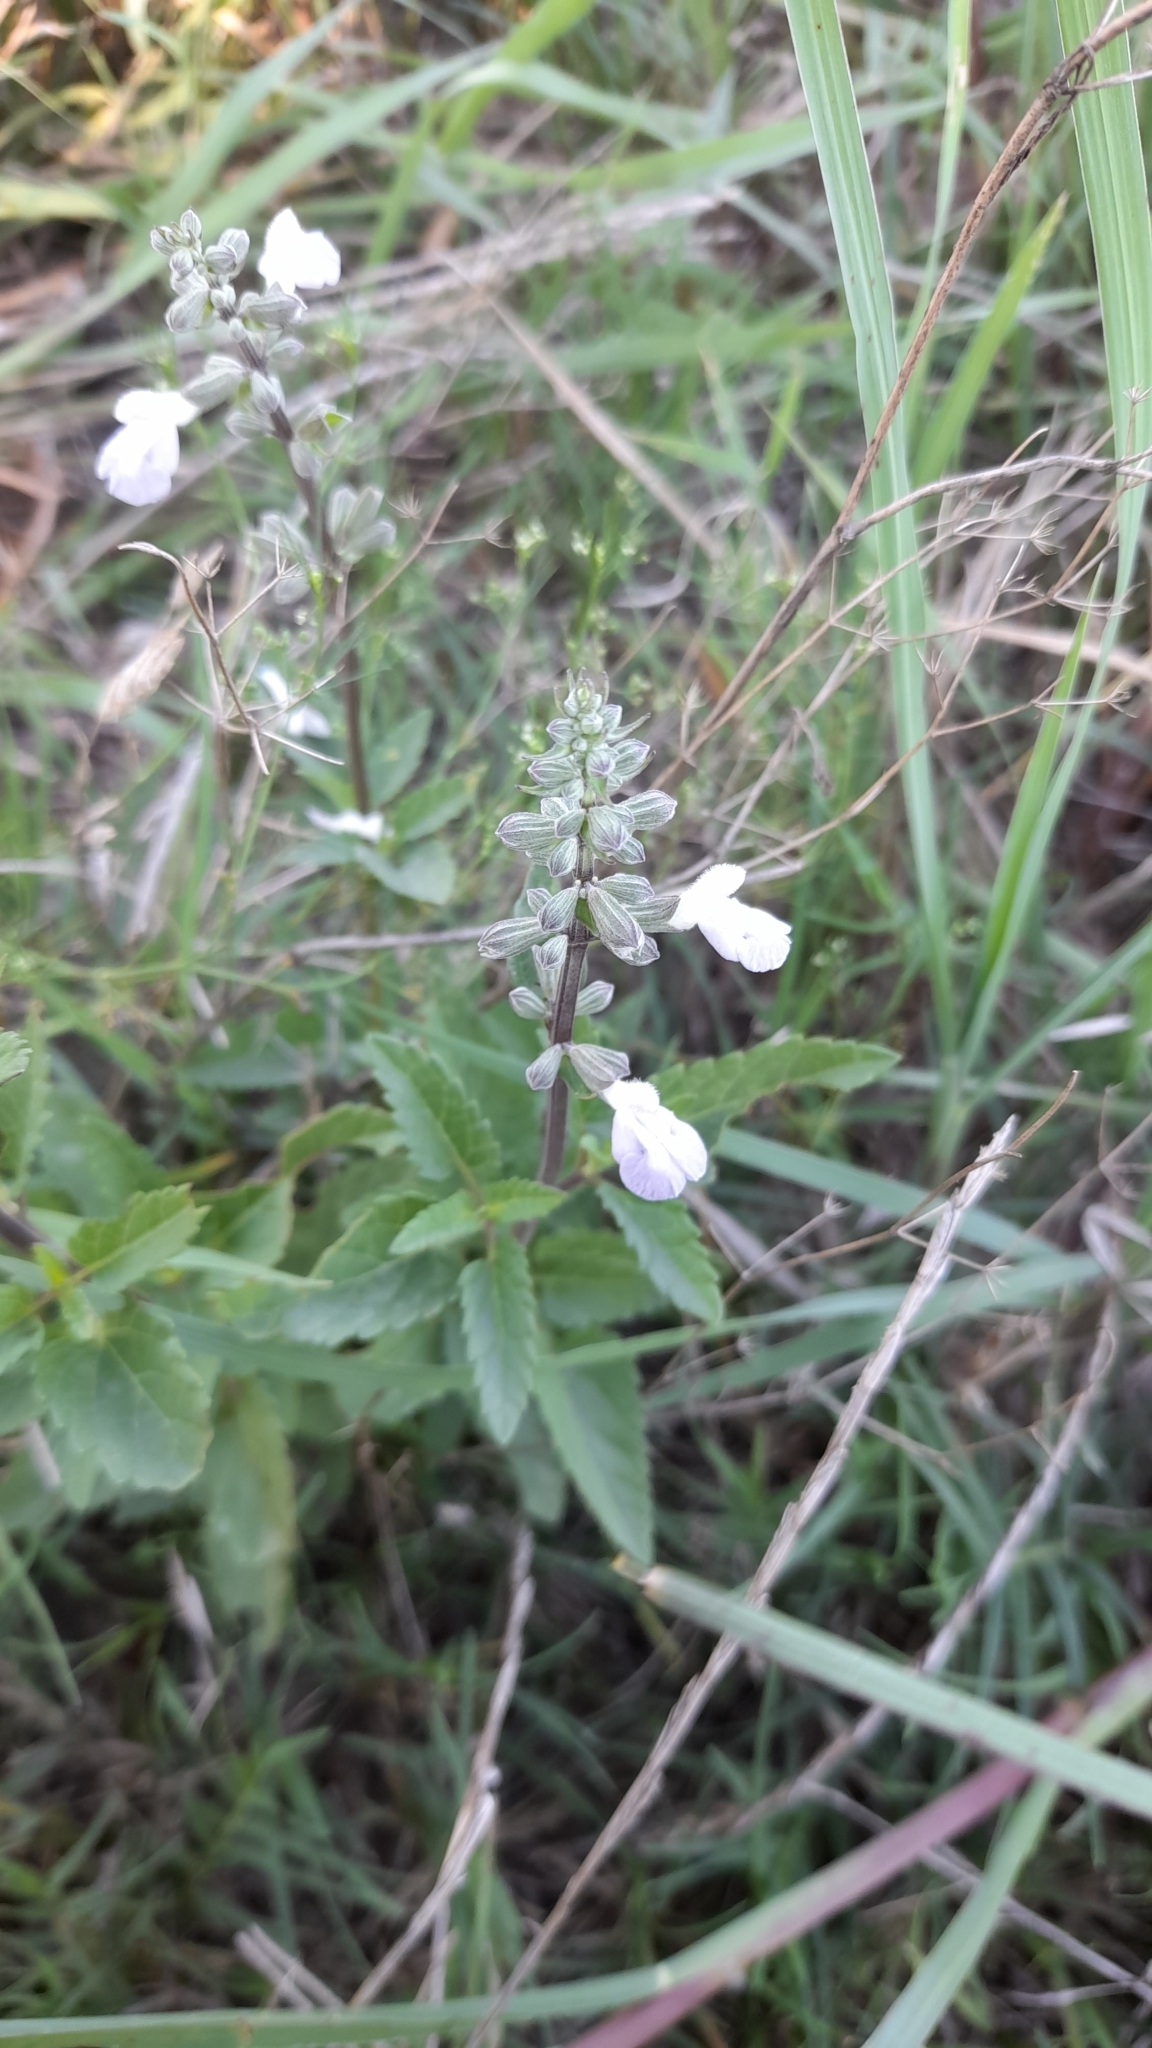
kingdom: Plantae
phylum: Tracheophyta
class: Magnoliopsida
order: Lamiales
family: Lamiaceae
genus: Salvia
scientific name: Salvia pallida
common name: Pale sage
